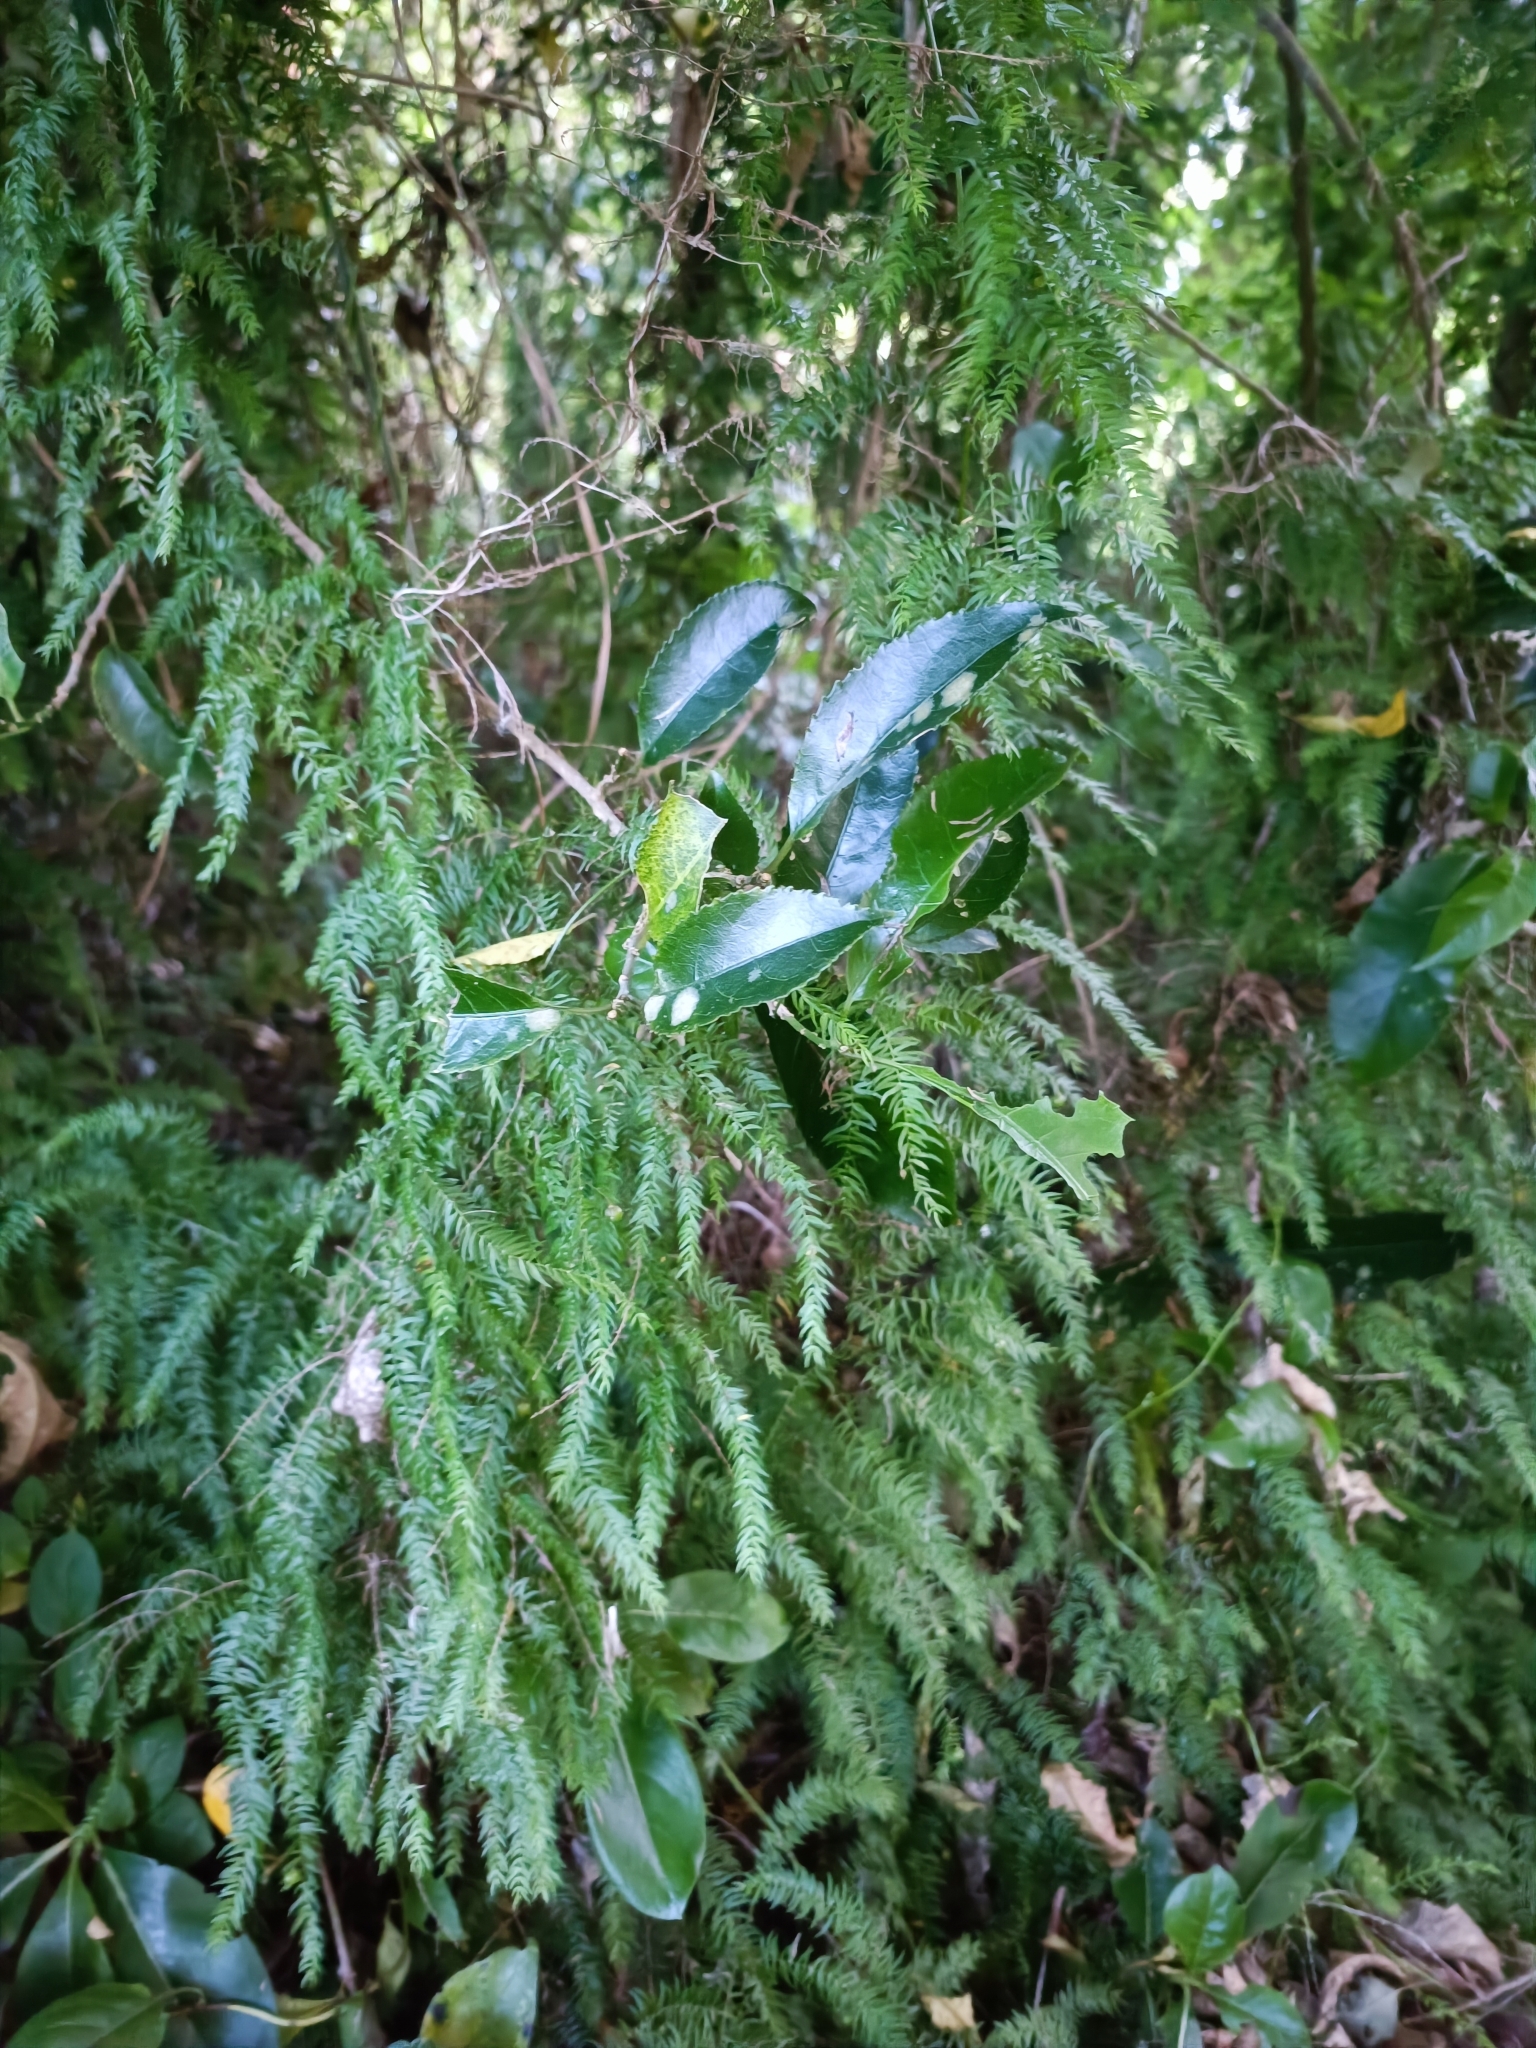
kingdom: Plantae
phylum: Tracheophyta
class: Liliopsida
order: Asparagales
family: Asparagaceae
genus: Asparagus
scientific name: Asparagus scandens
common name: Asparagus-fern
